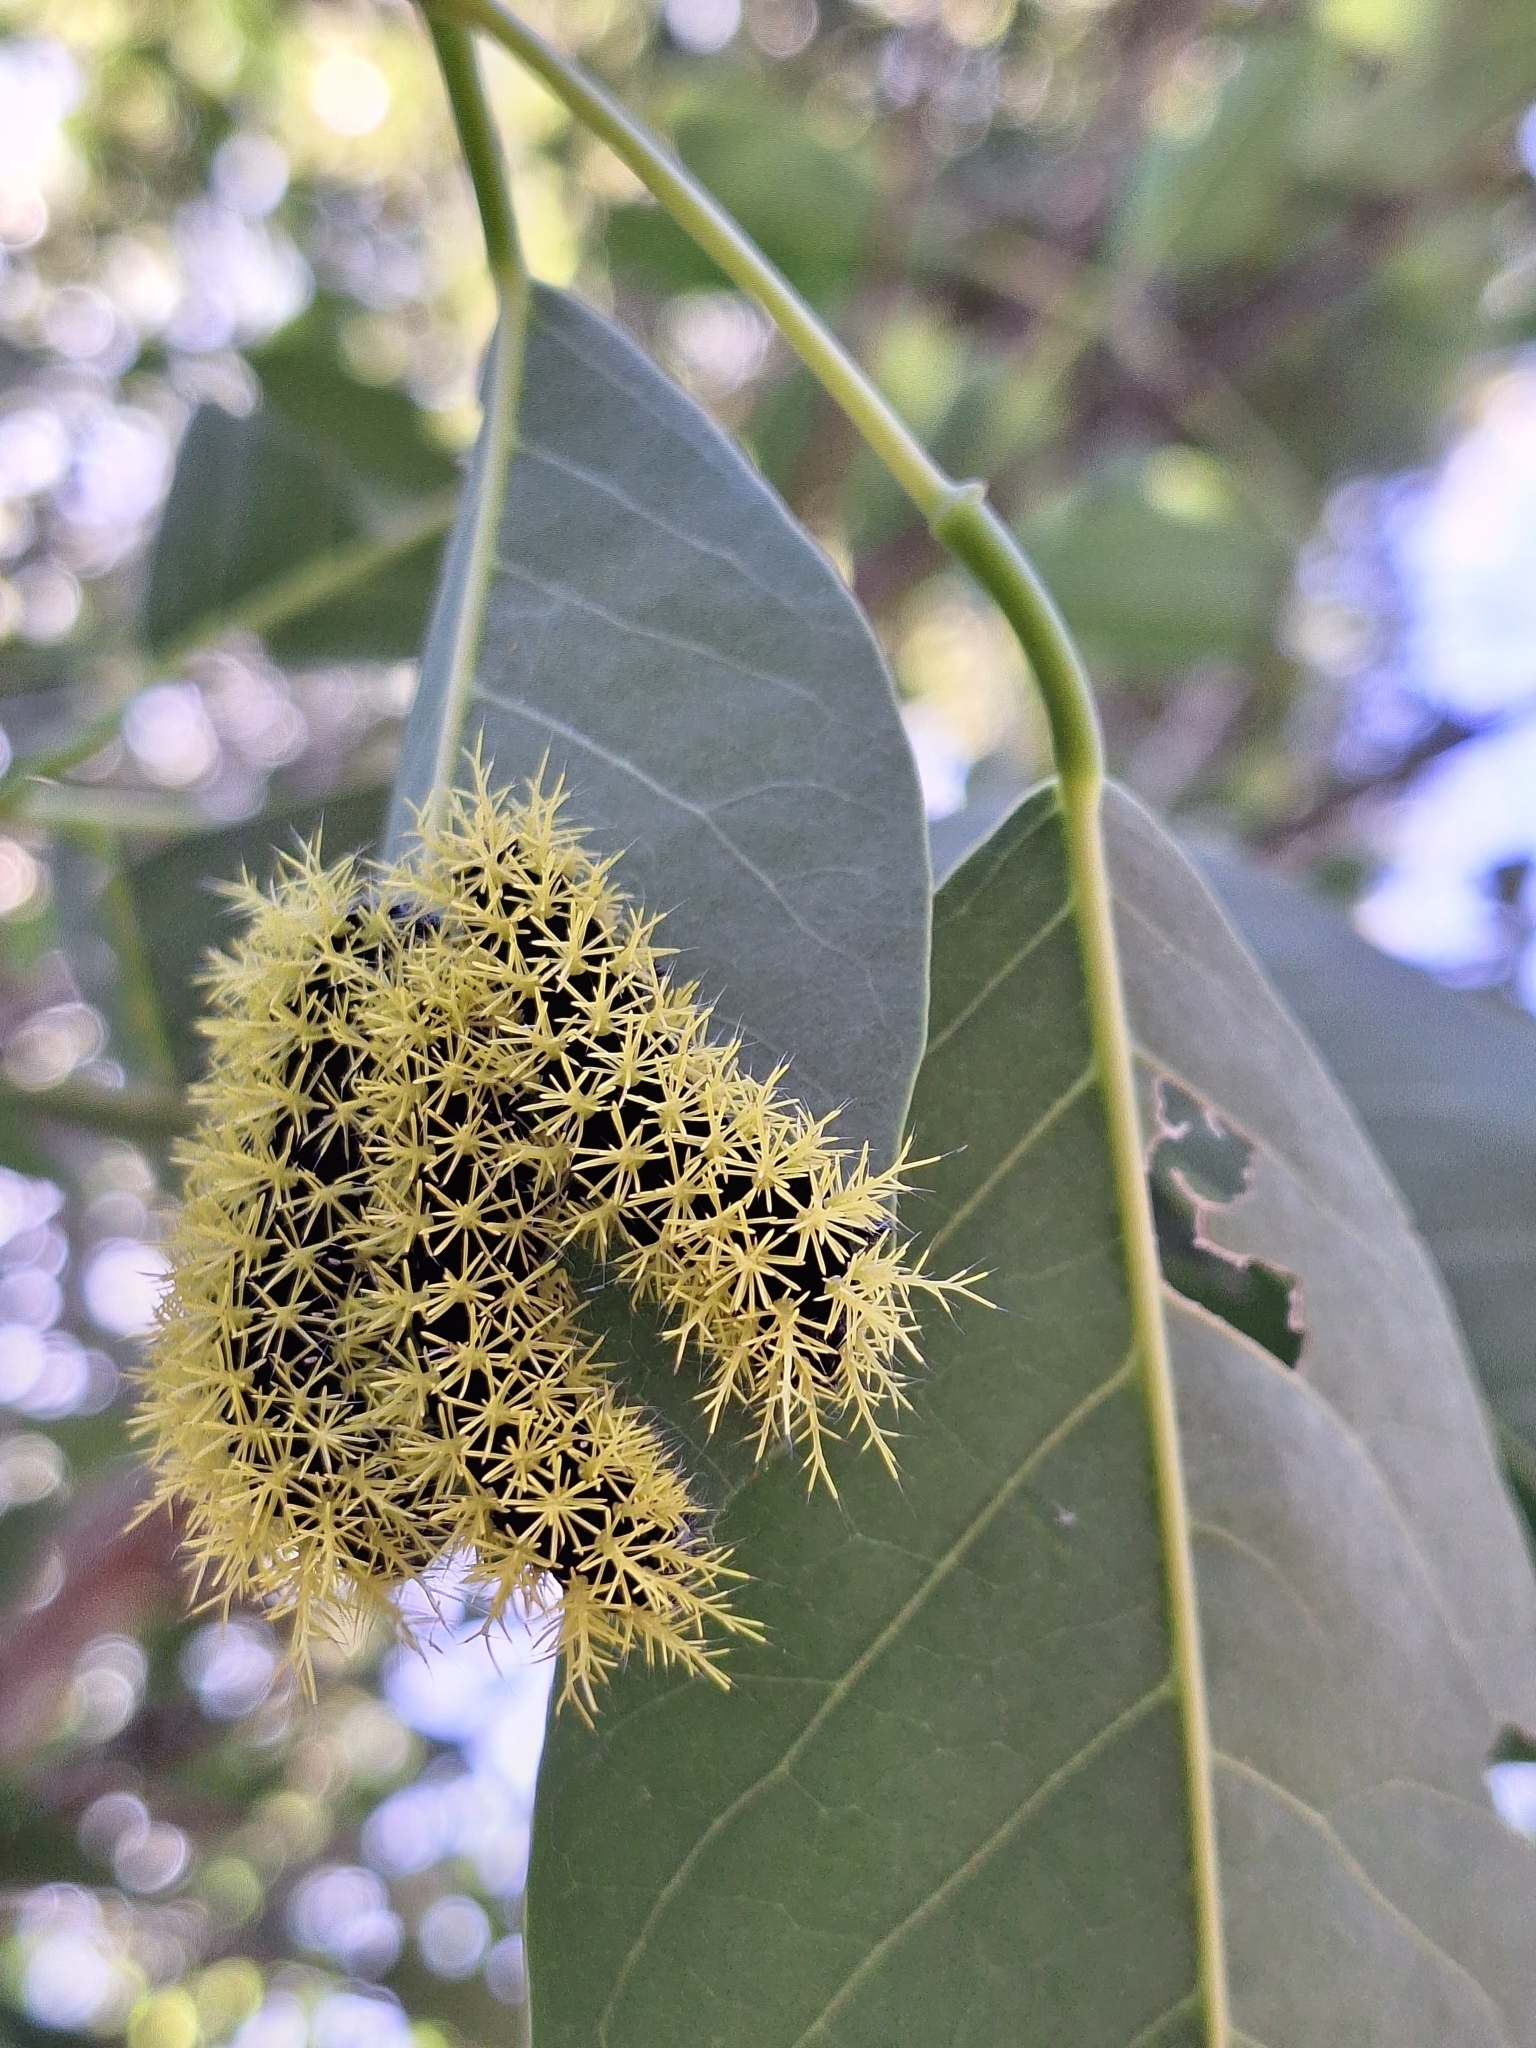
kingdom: Animalia
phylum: Arthropoda
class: Insecta
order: Lepidoptera
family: Saturniidae
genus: Leucanella
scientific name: Leucanella viridescens
